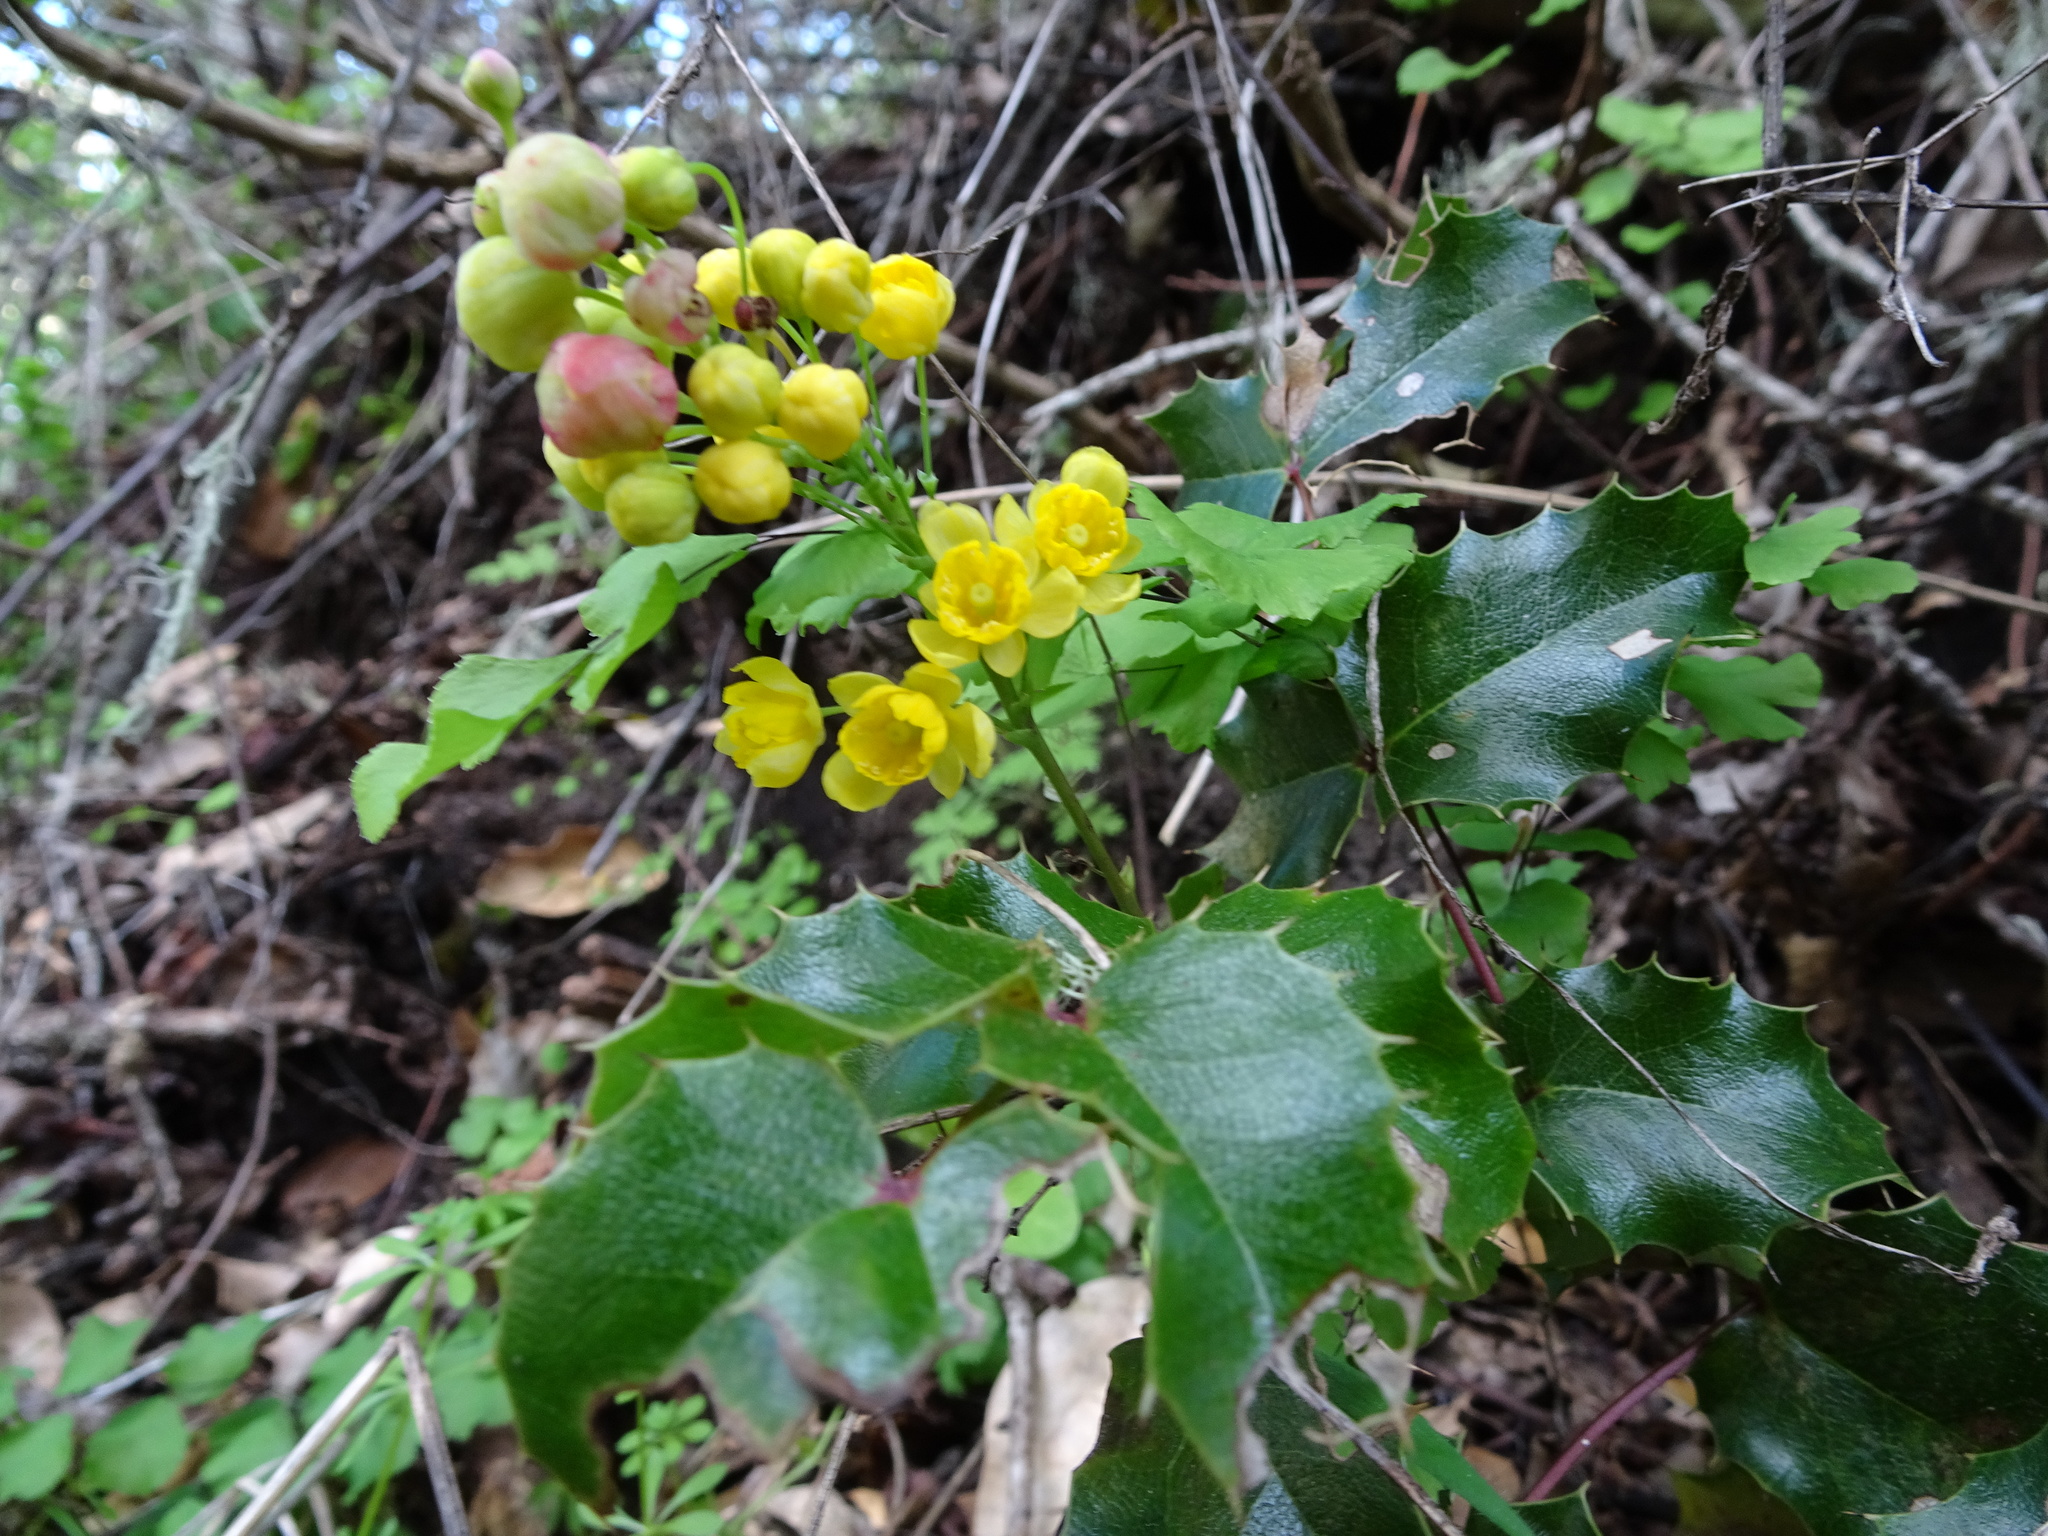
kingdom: Plantae
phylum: Tracheophyta
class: Magnoliopsida
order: Ranunculales
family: Berberidaceae
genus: Mahonia
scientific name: Mahonia
